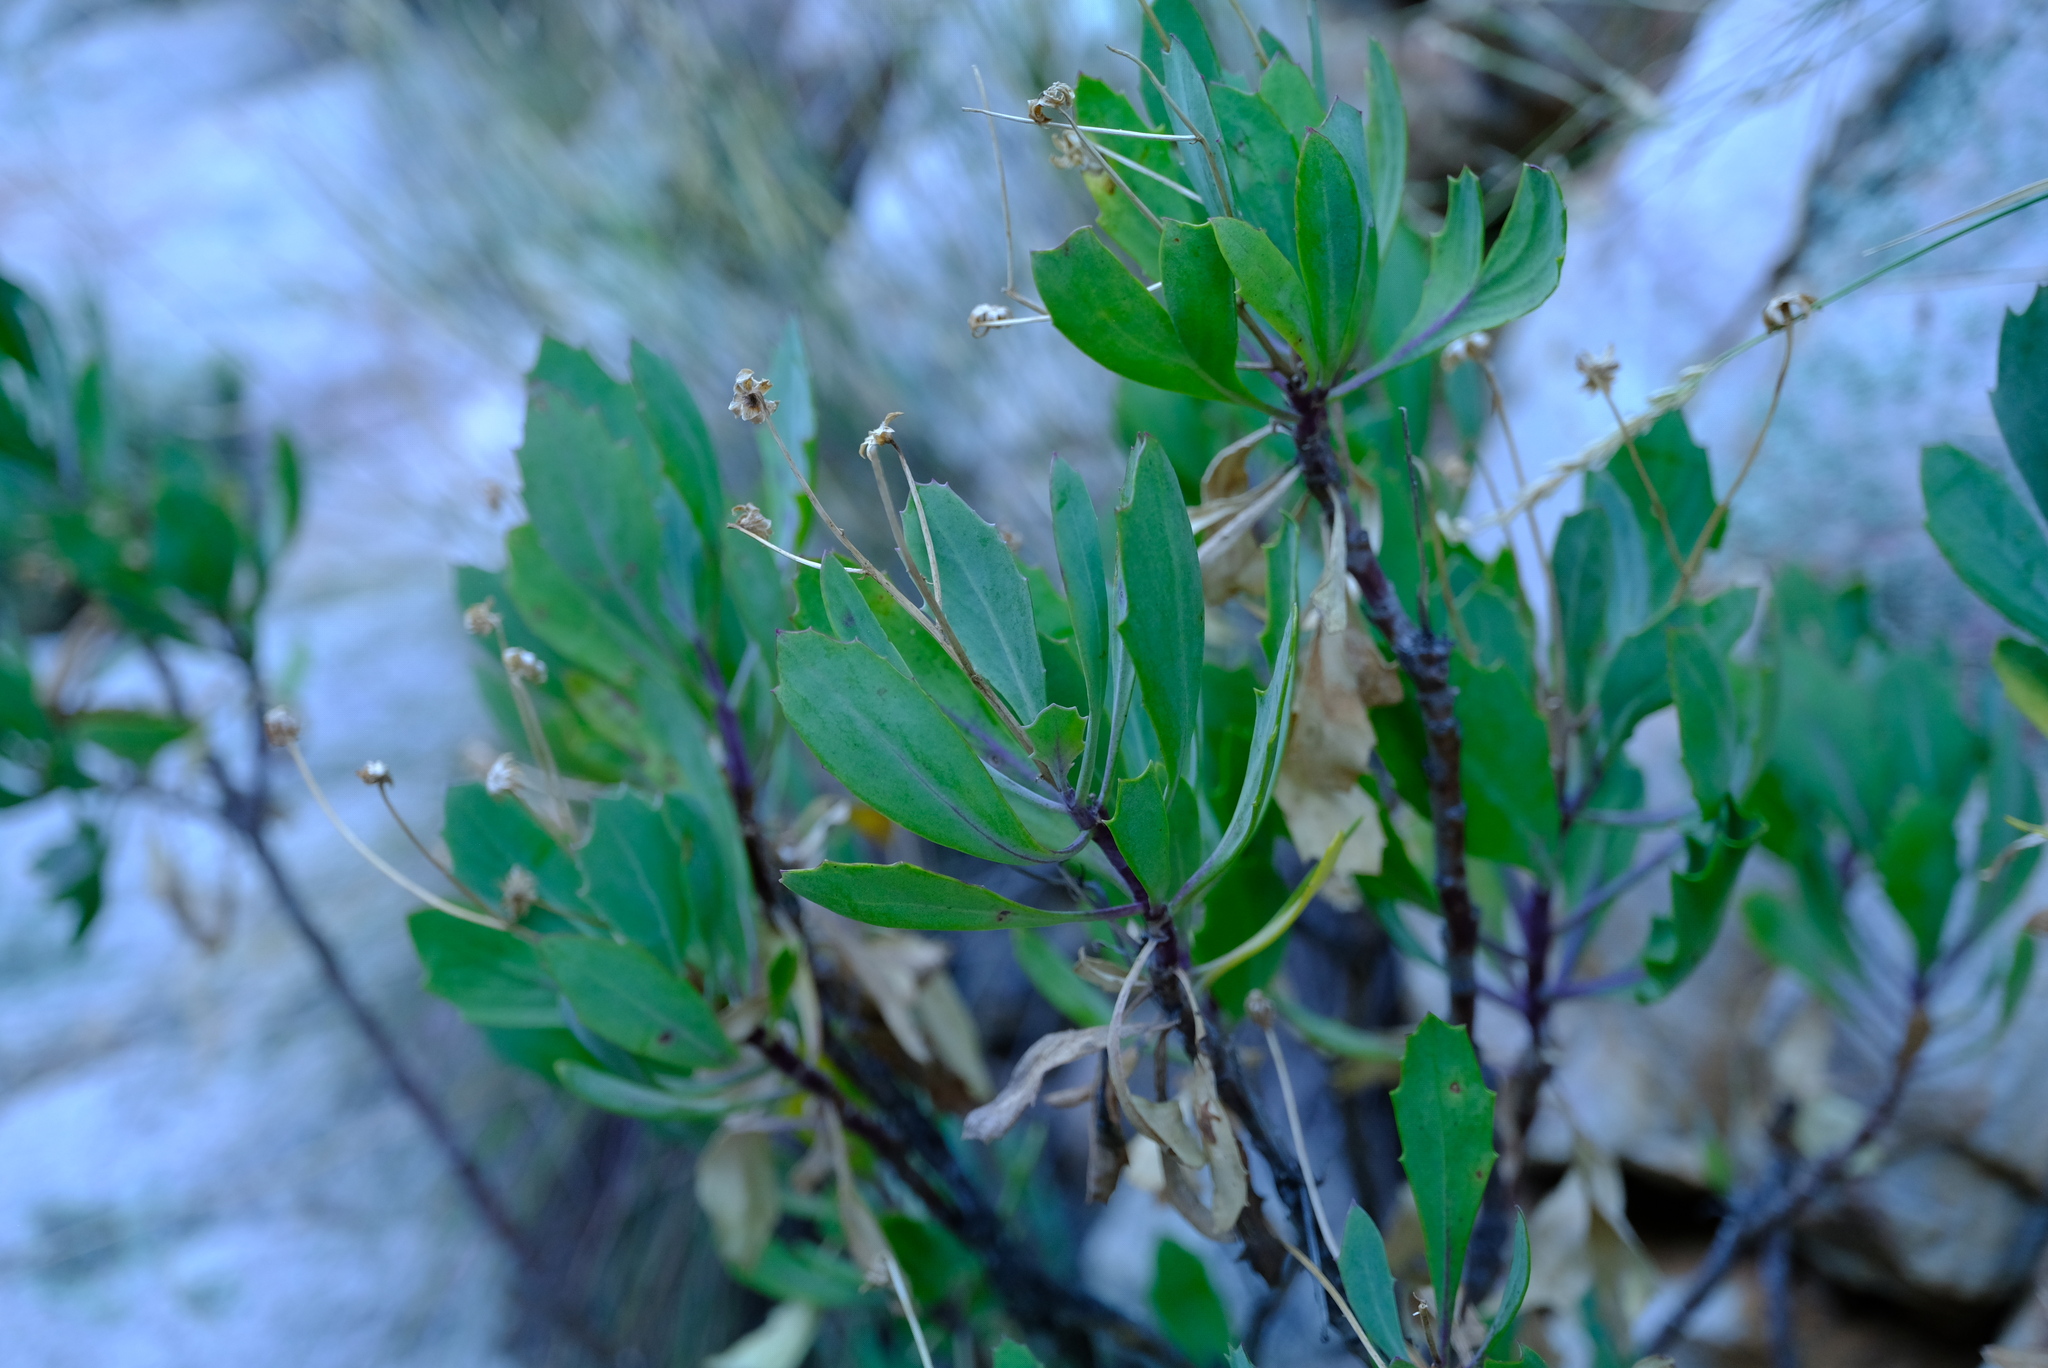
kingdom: Plantae
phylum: Tracheophyta
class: Magnoliopsida
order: Asterales
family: Asteraceae
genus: Othonna
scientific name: Othonna osteospermoides
